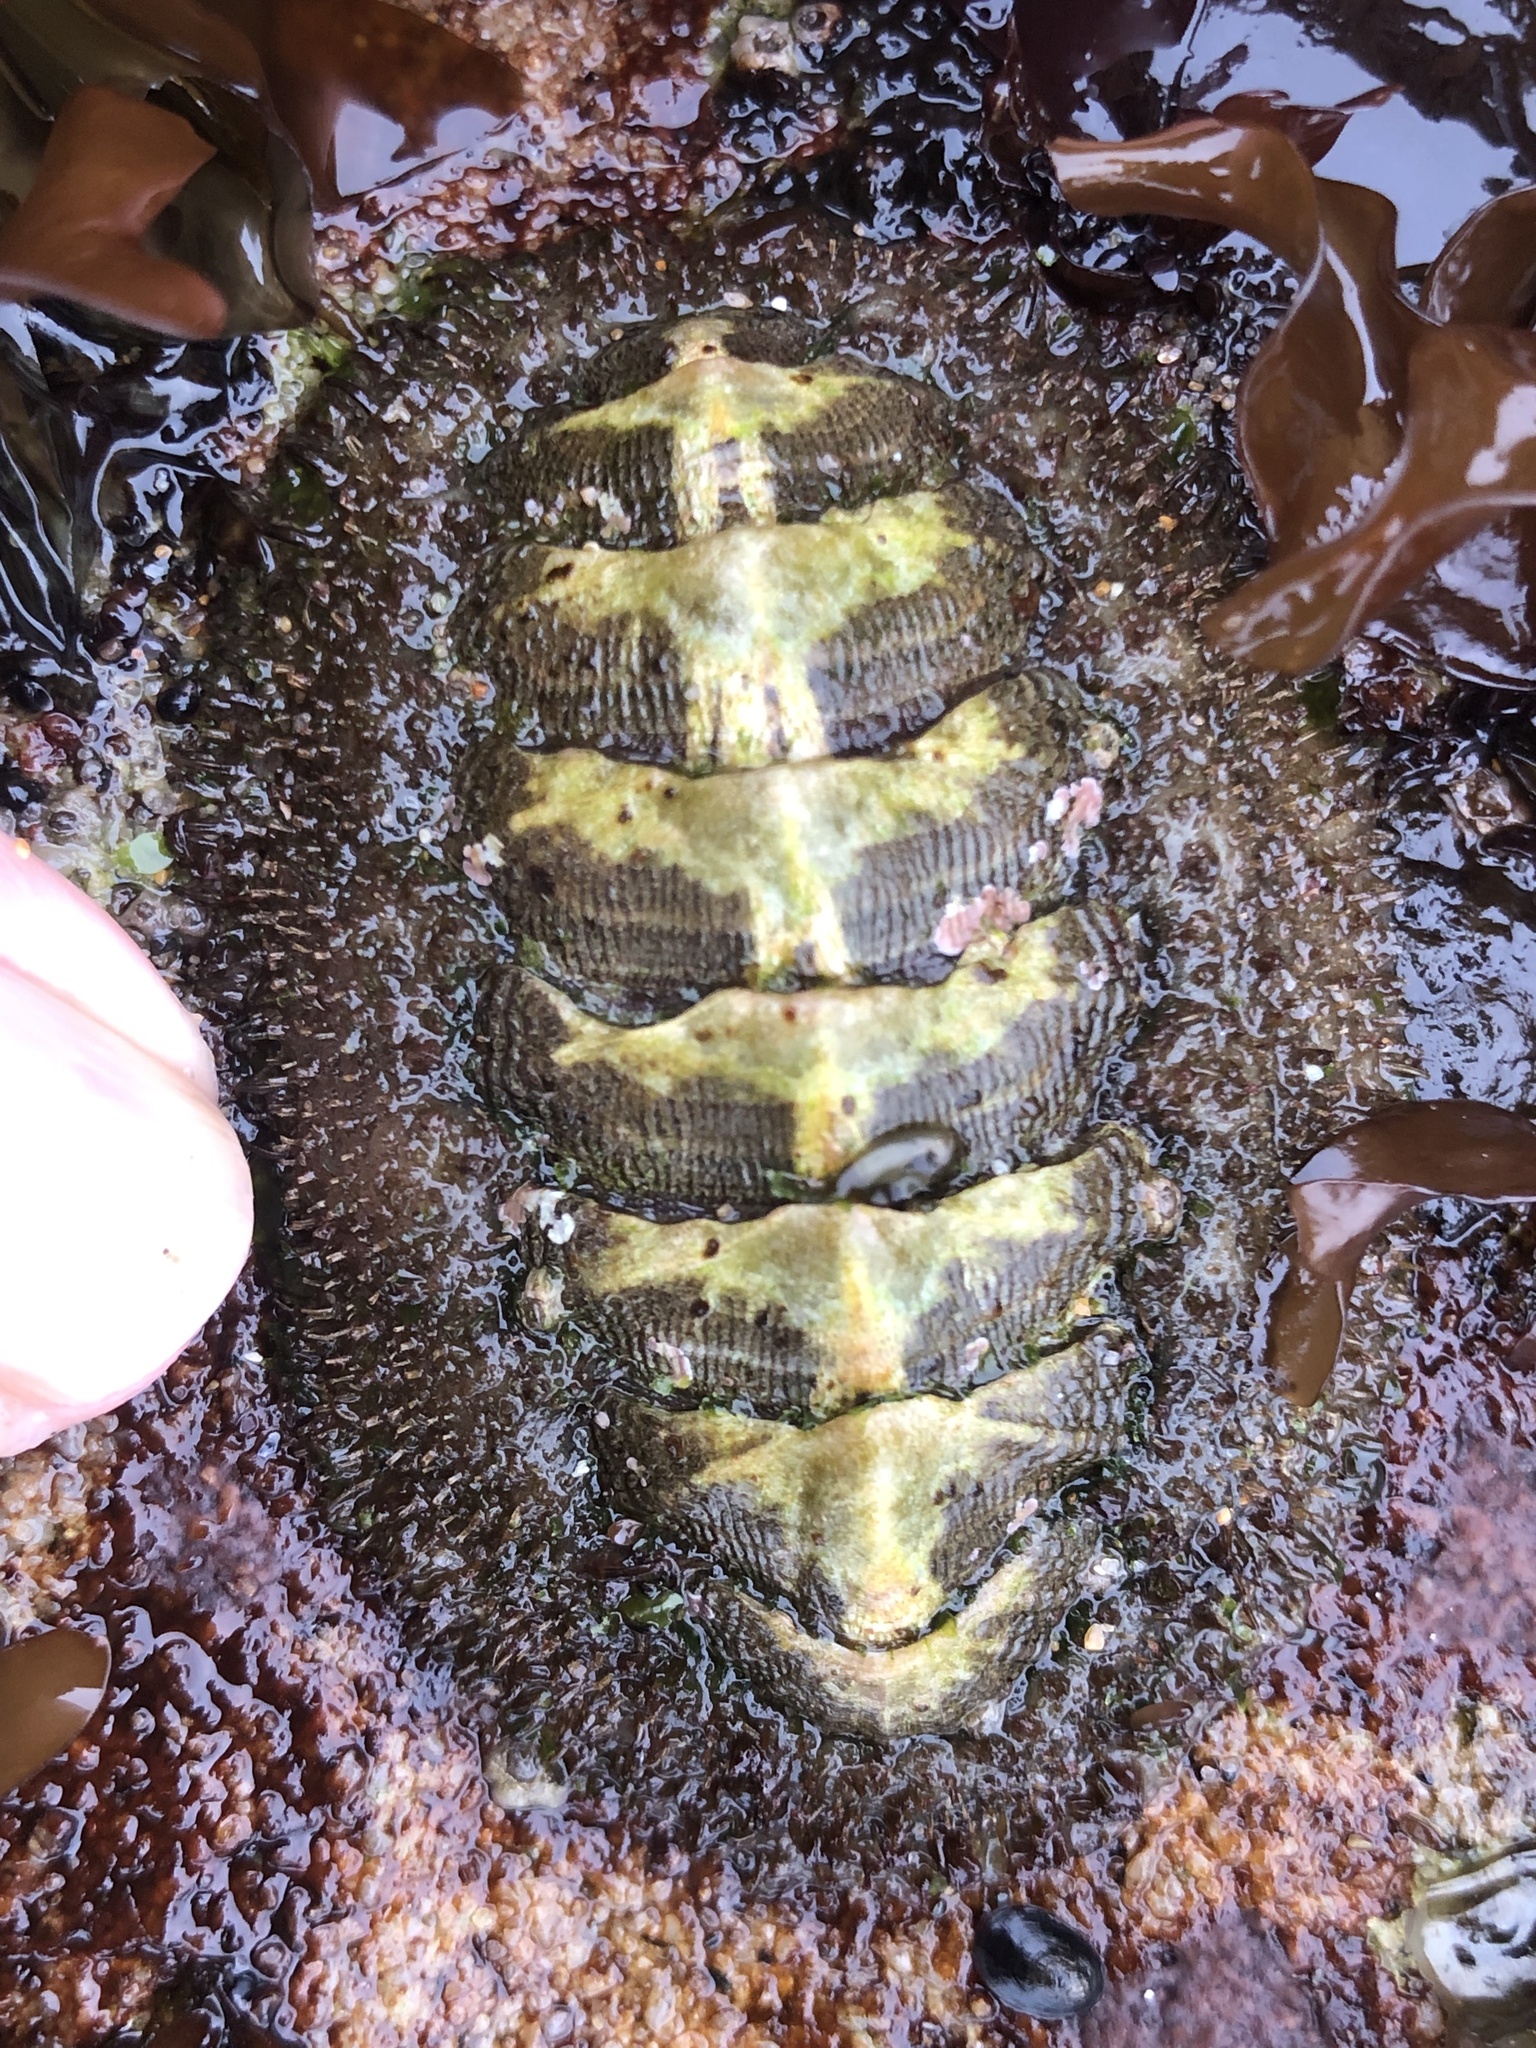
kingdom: Animalia
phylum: Mollusca
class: Polyplacophora
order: Chitonida
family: Mopaliidae
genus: Mopalia
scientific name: Mopalia muscosa
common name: Mossy chiton
